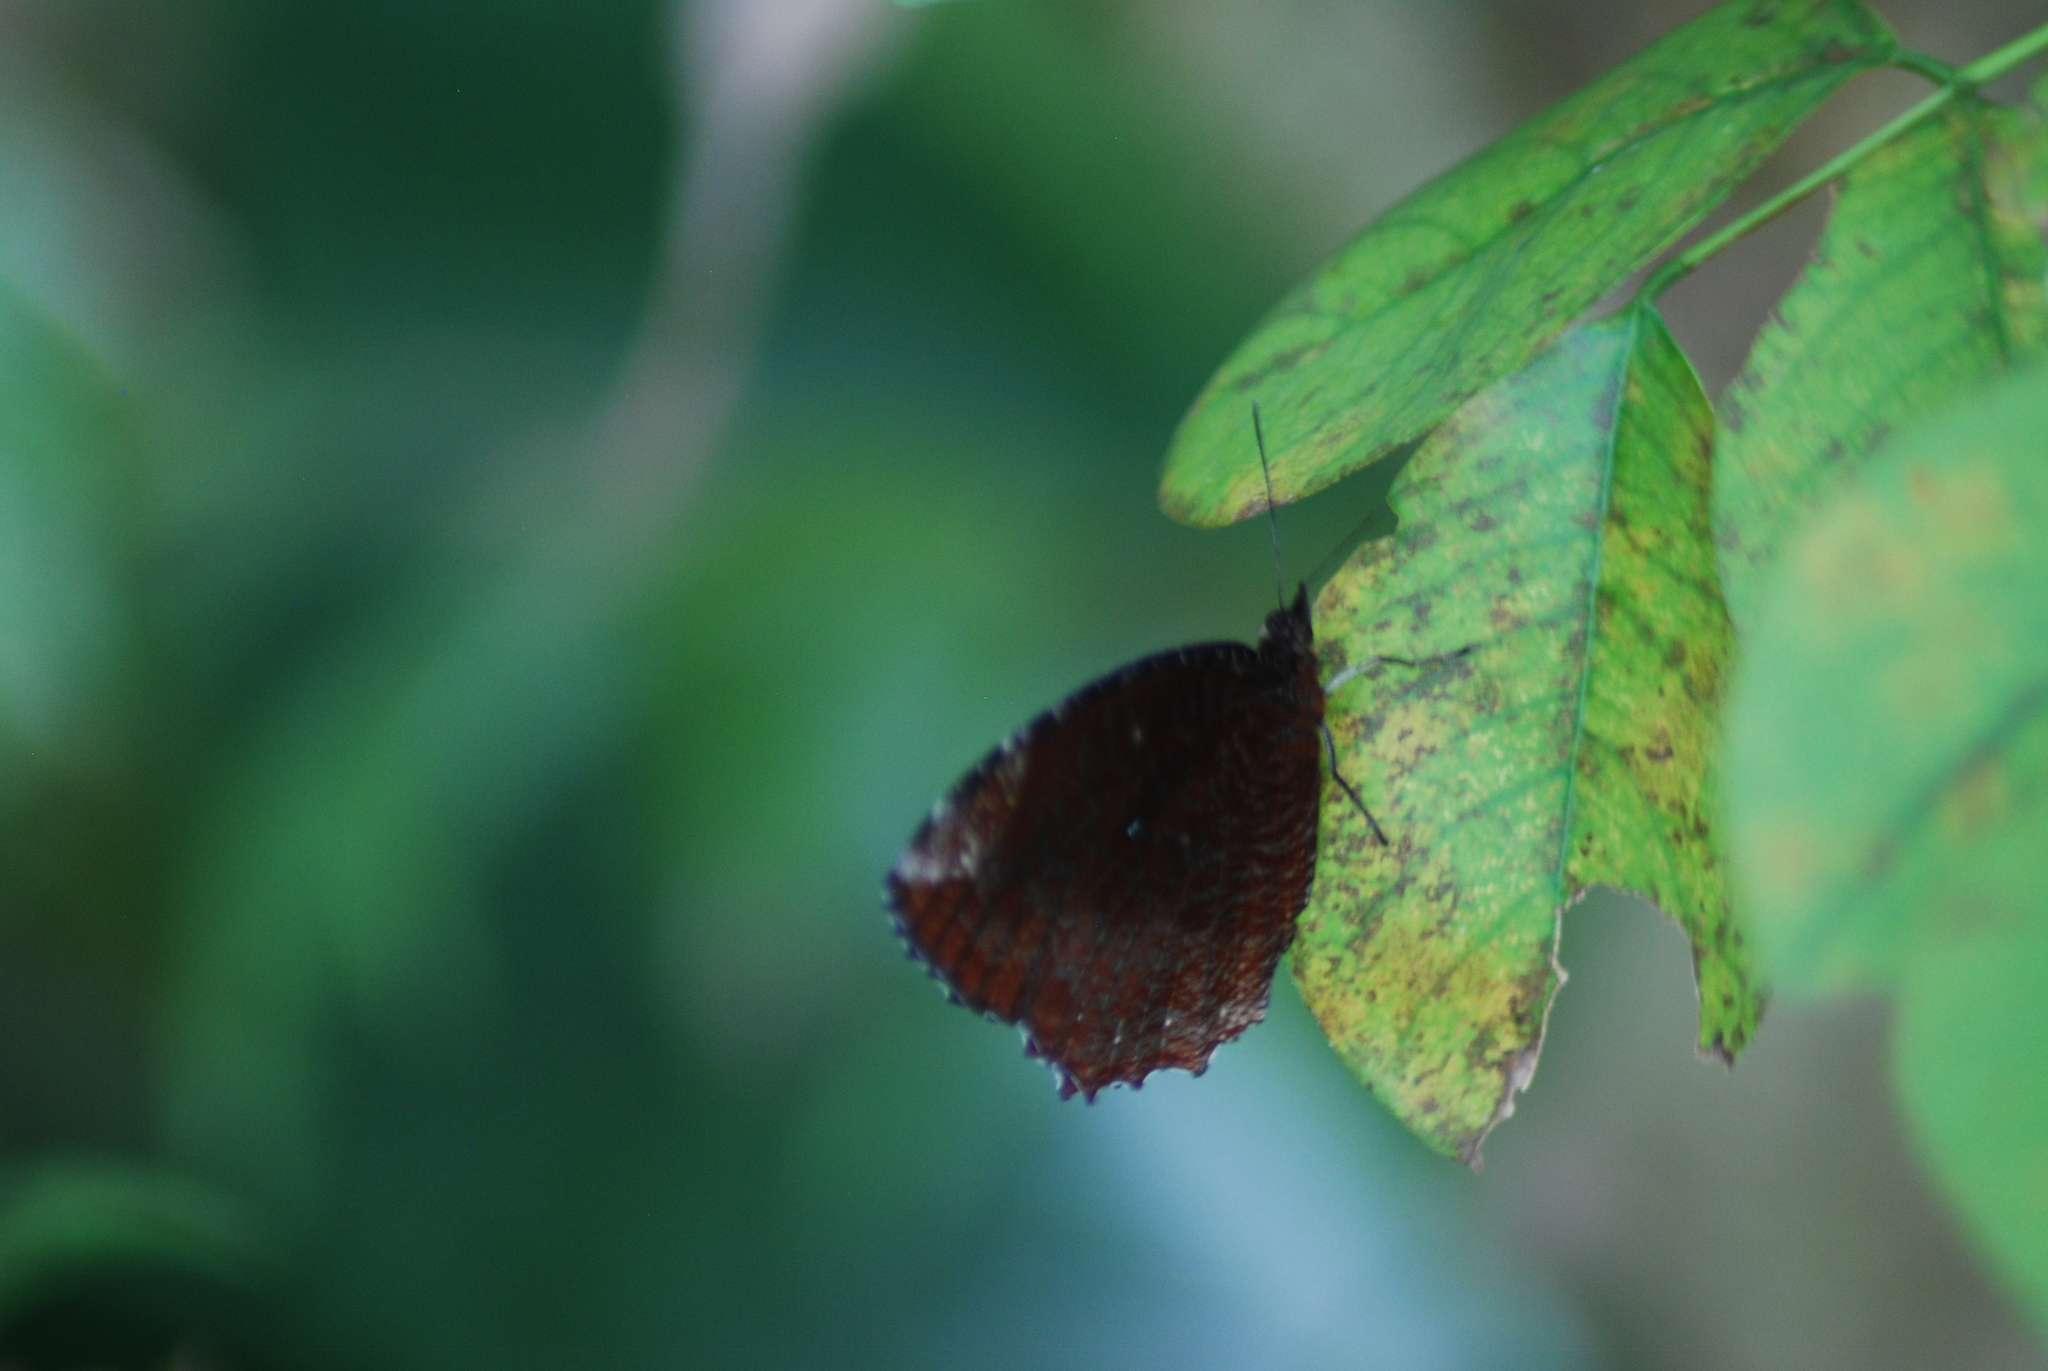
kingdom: Animalia
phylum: Arthropoda
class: Insecta
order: Lepidoptera
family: Nymphalidae
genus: Elymnias
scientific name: Elymnias hypermnestra
